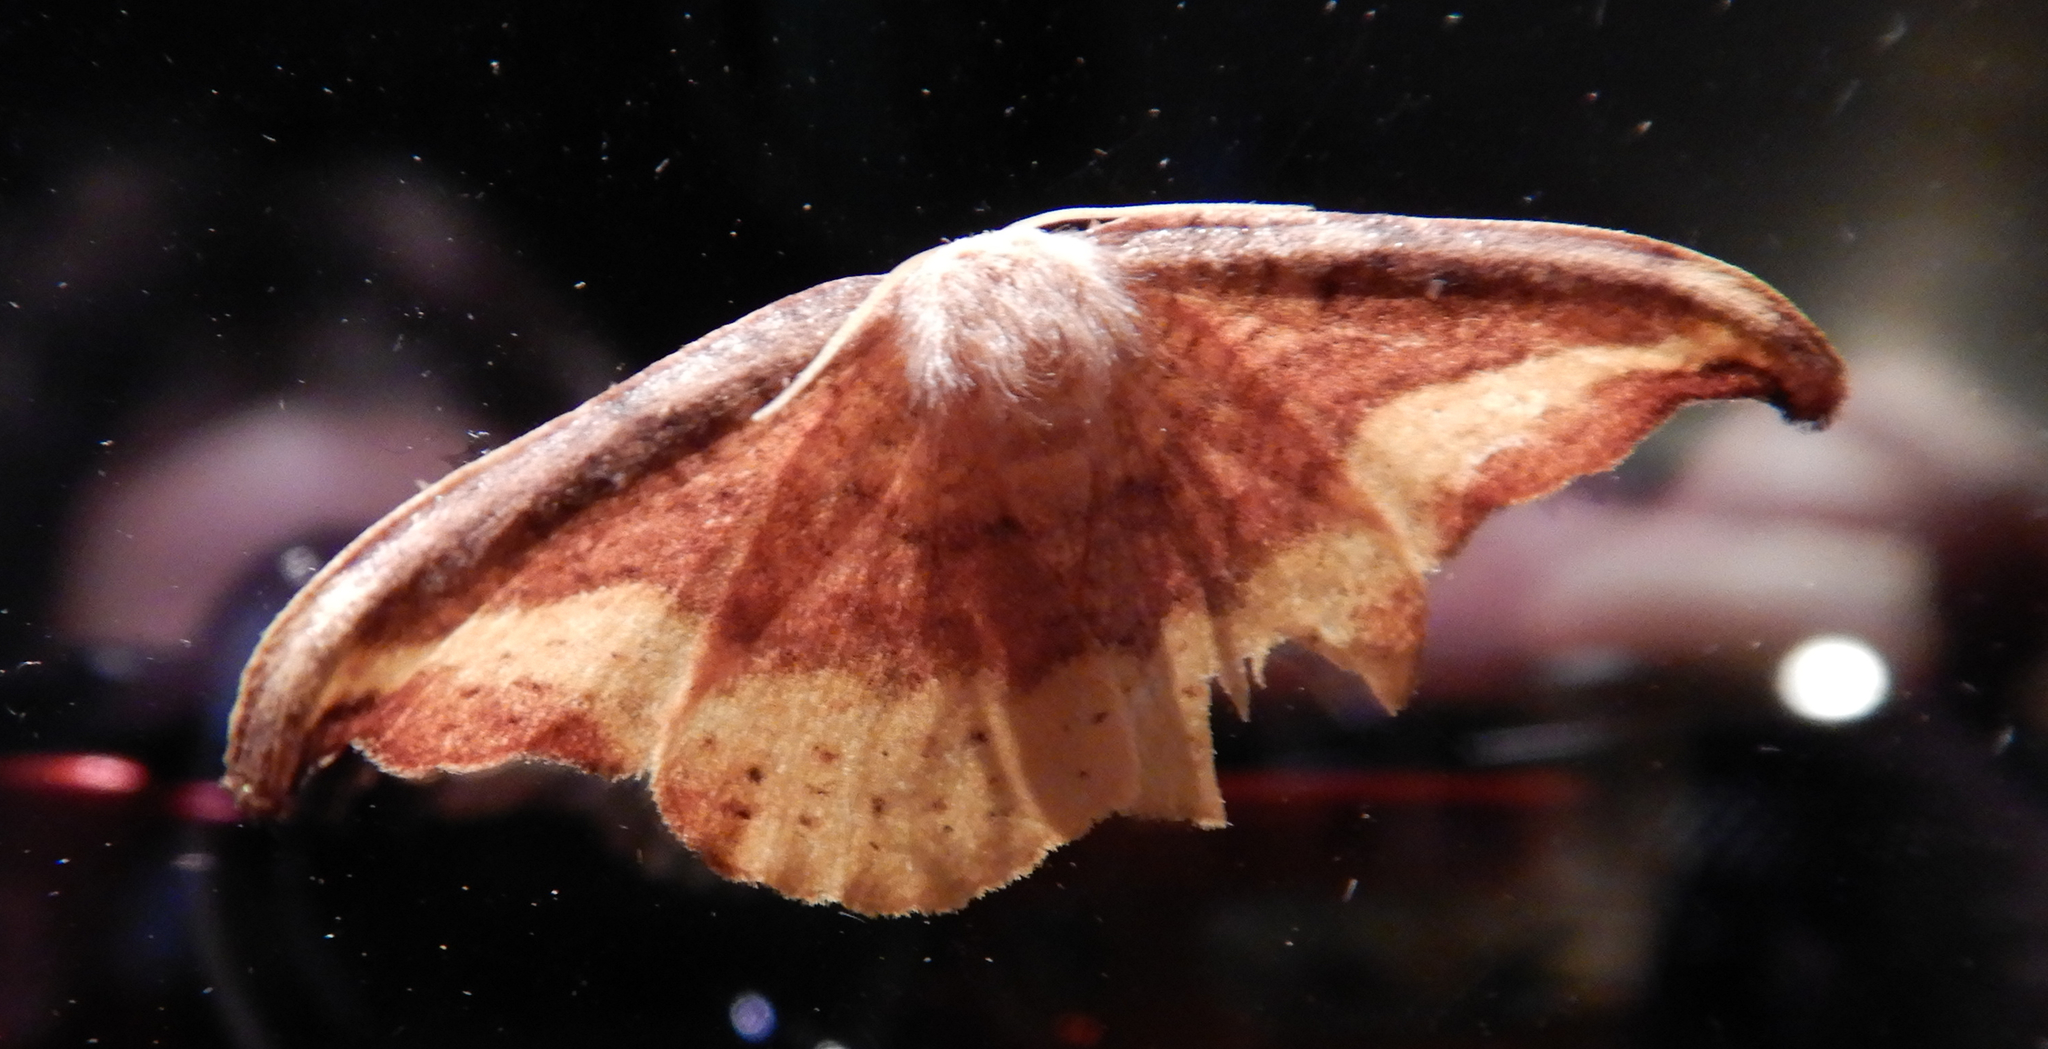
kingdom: Animalia
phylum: Arthropoda
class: Insecta
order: Lepidoptera
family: Drepanidae
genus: Oreta
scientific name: Oreta rosea
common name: Rose hooktip
